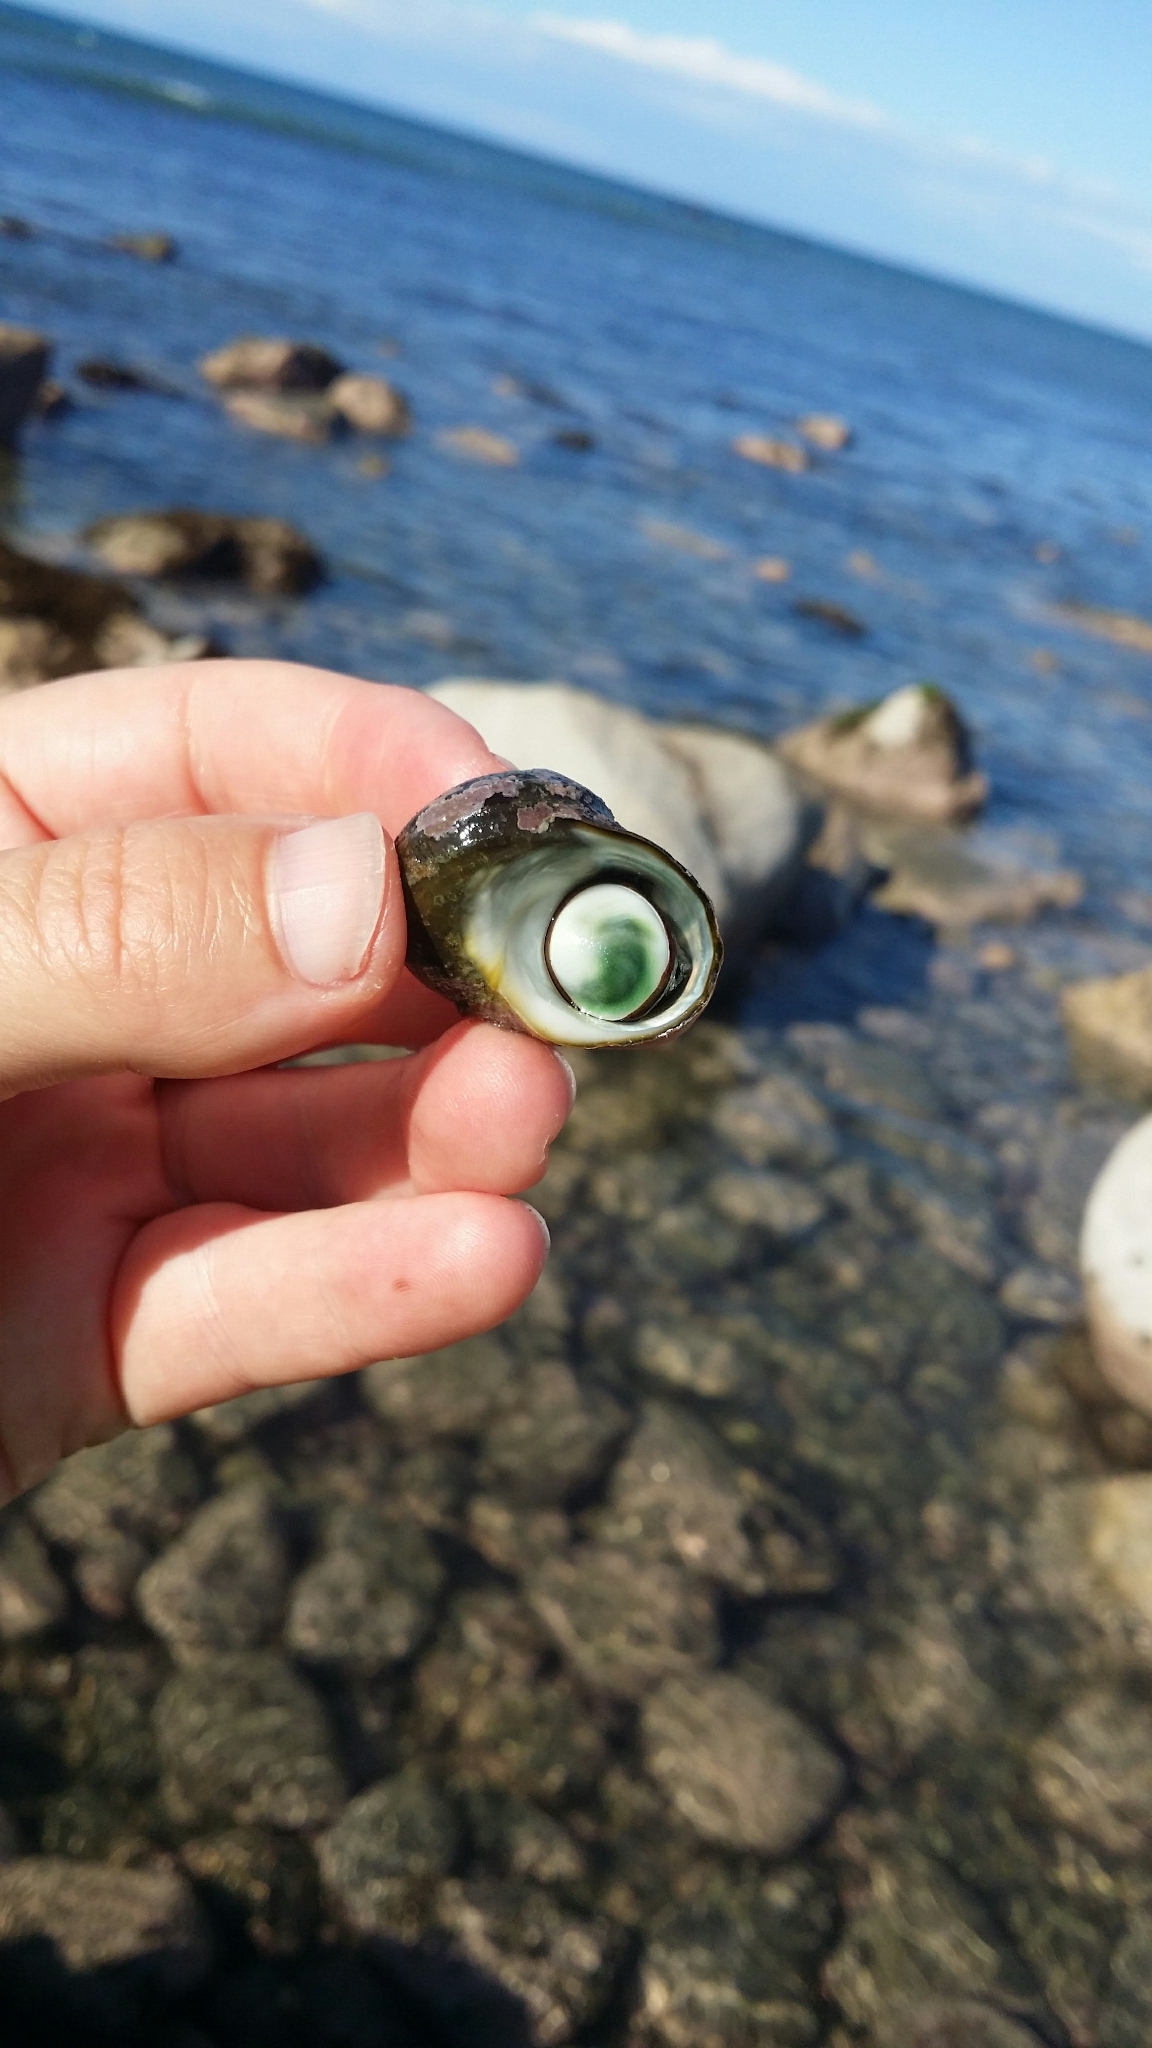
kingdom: Animalia
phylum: Mollusca
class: Gastropoda
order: Trochida
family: Turbinidae
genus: Lunella
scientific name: Lunella smaragda
